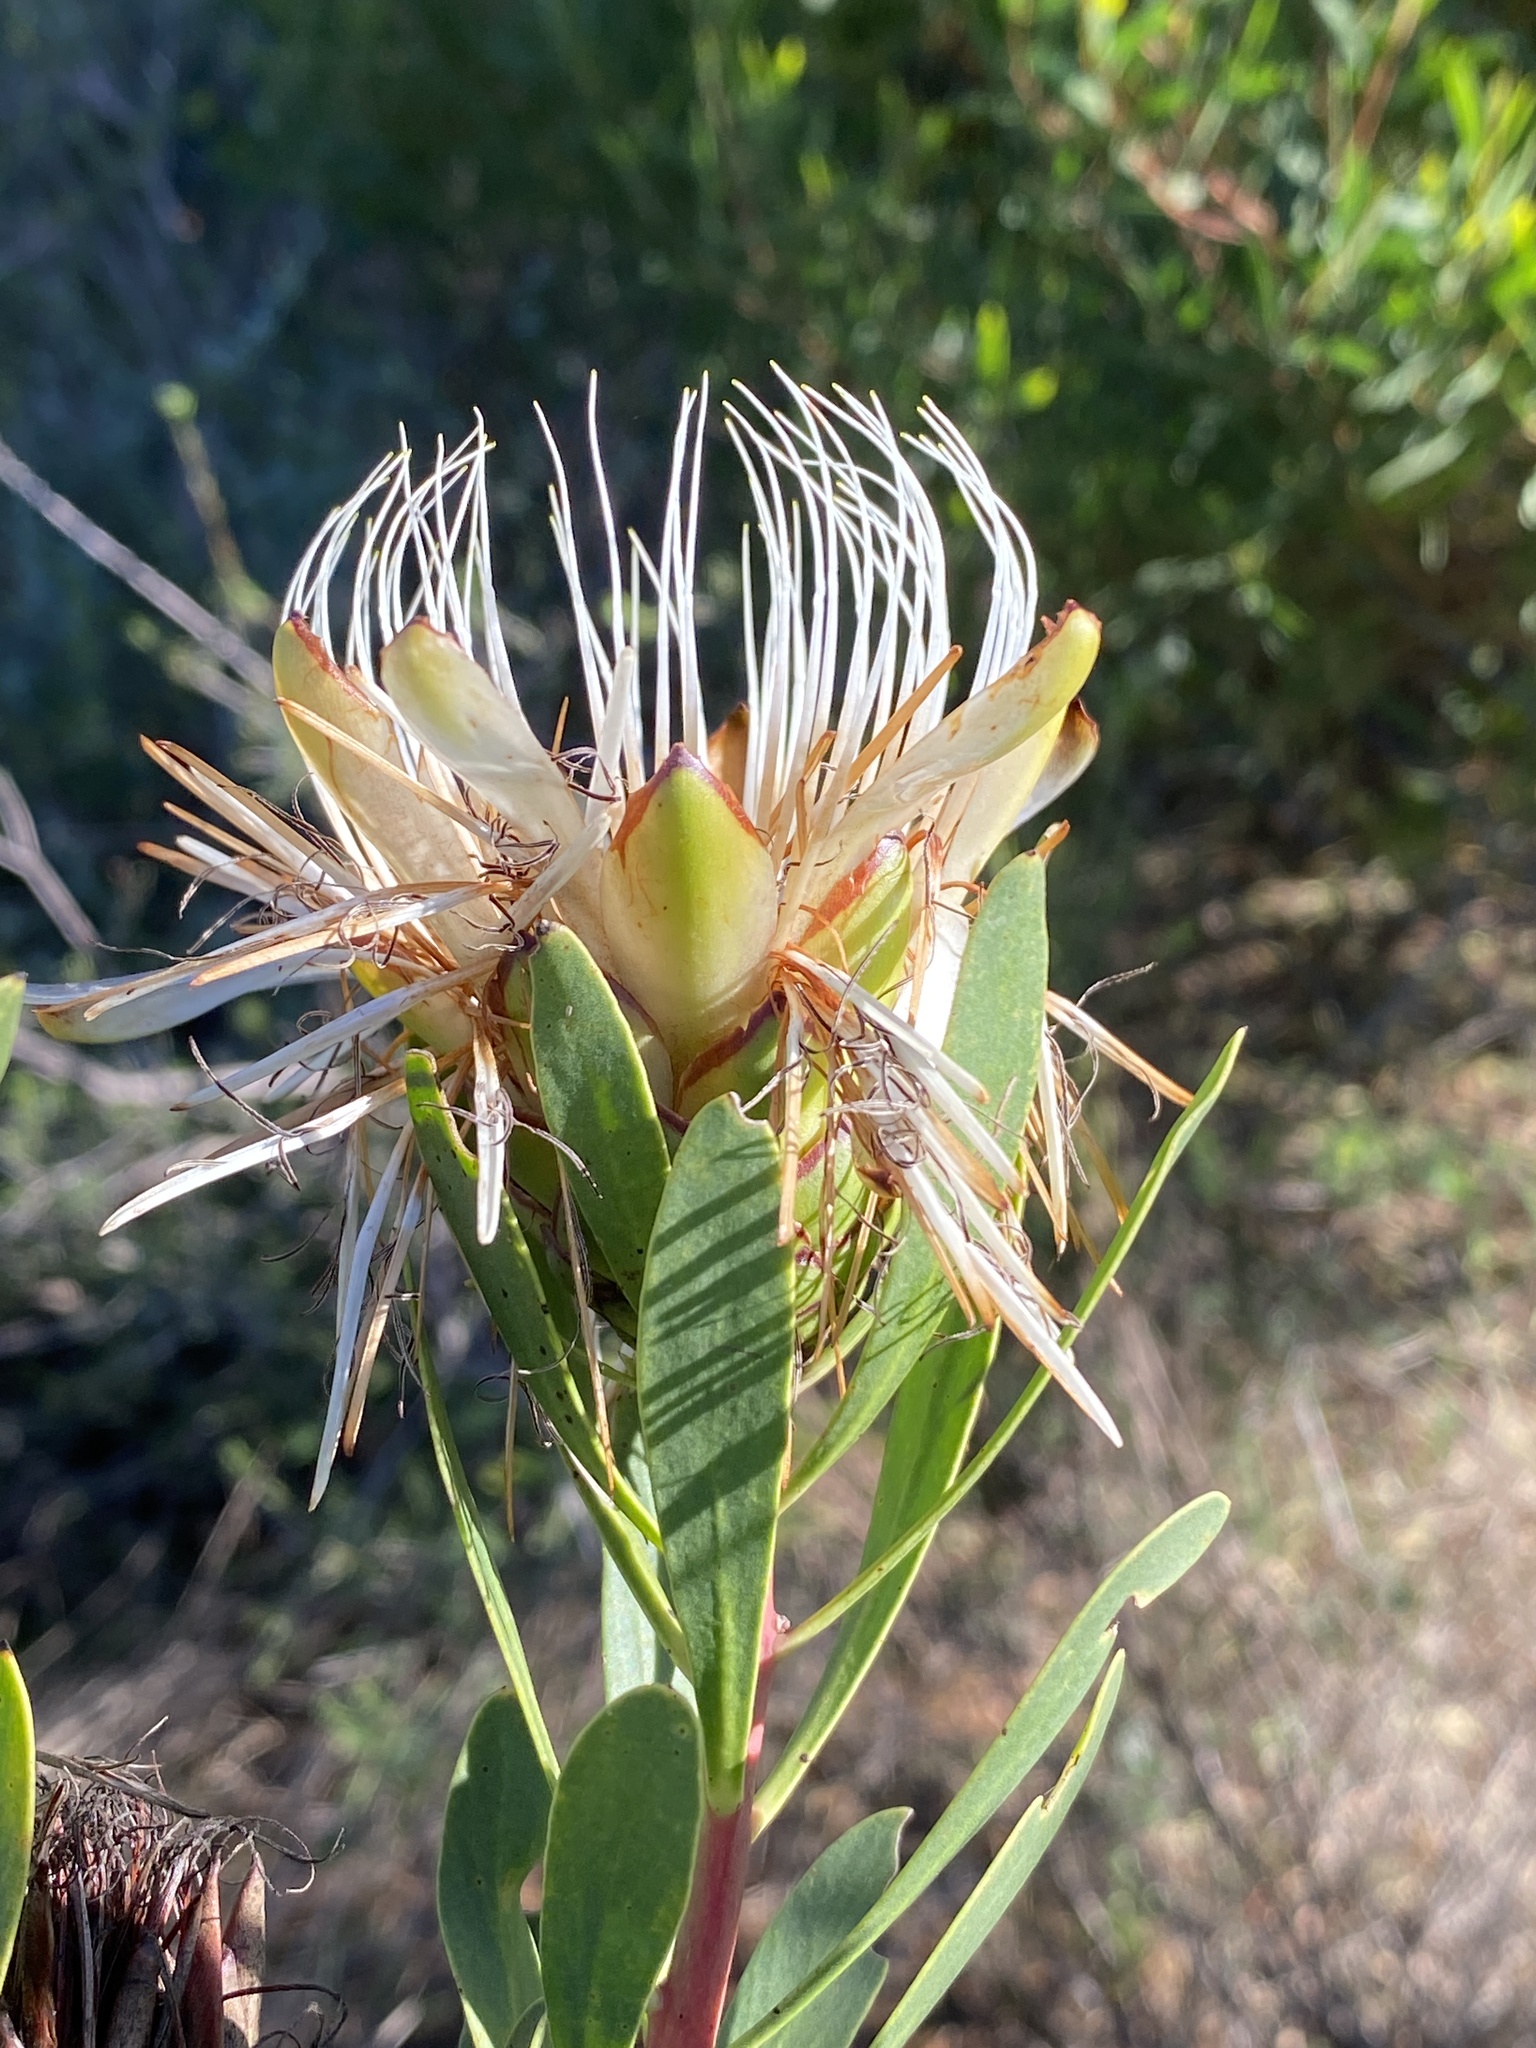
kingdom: Plantae
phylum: Tracheophyta
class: Magnoliopsida
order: Proteales
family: Proteaceae
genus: Protea
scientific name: Protea lanceolata
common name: Lance-leaved protea
